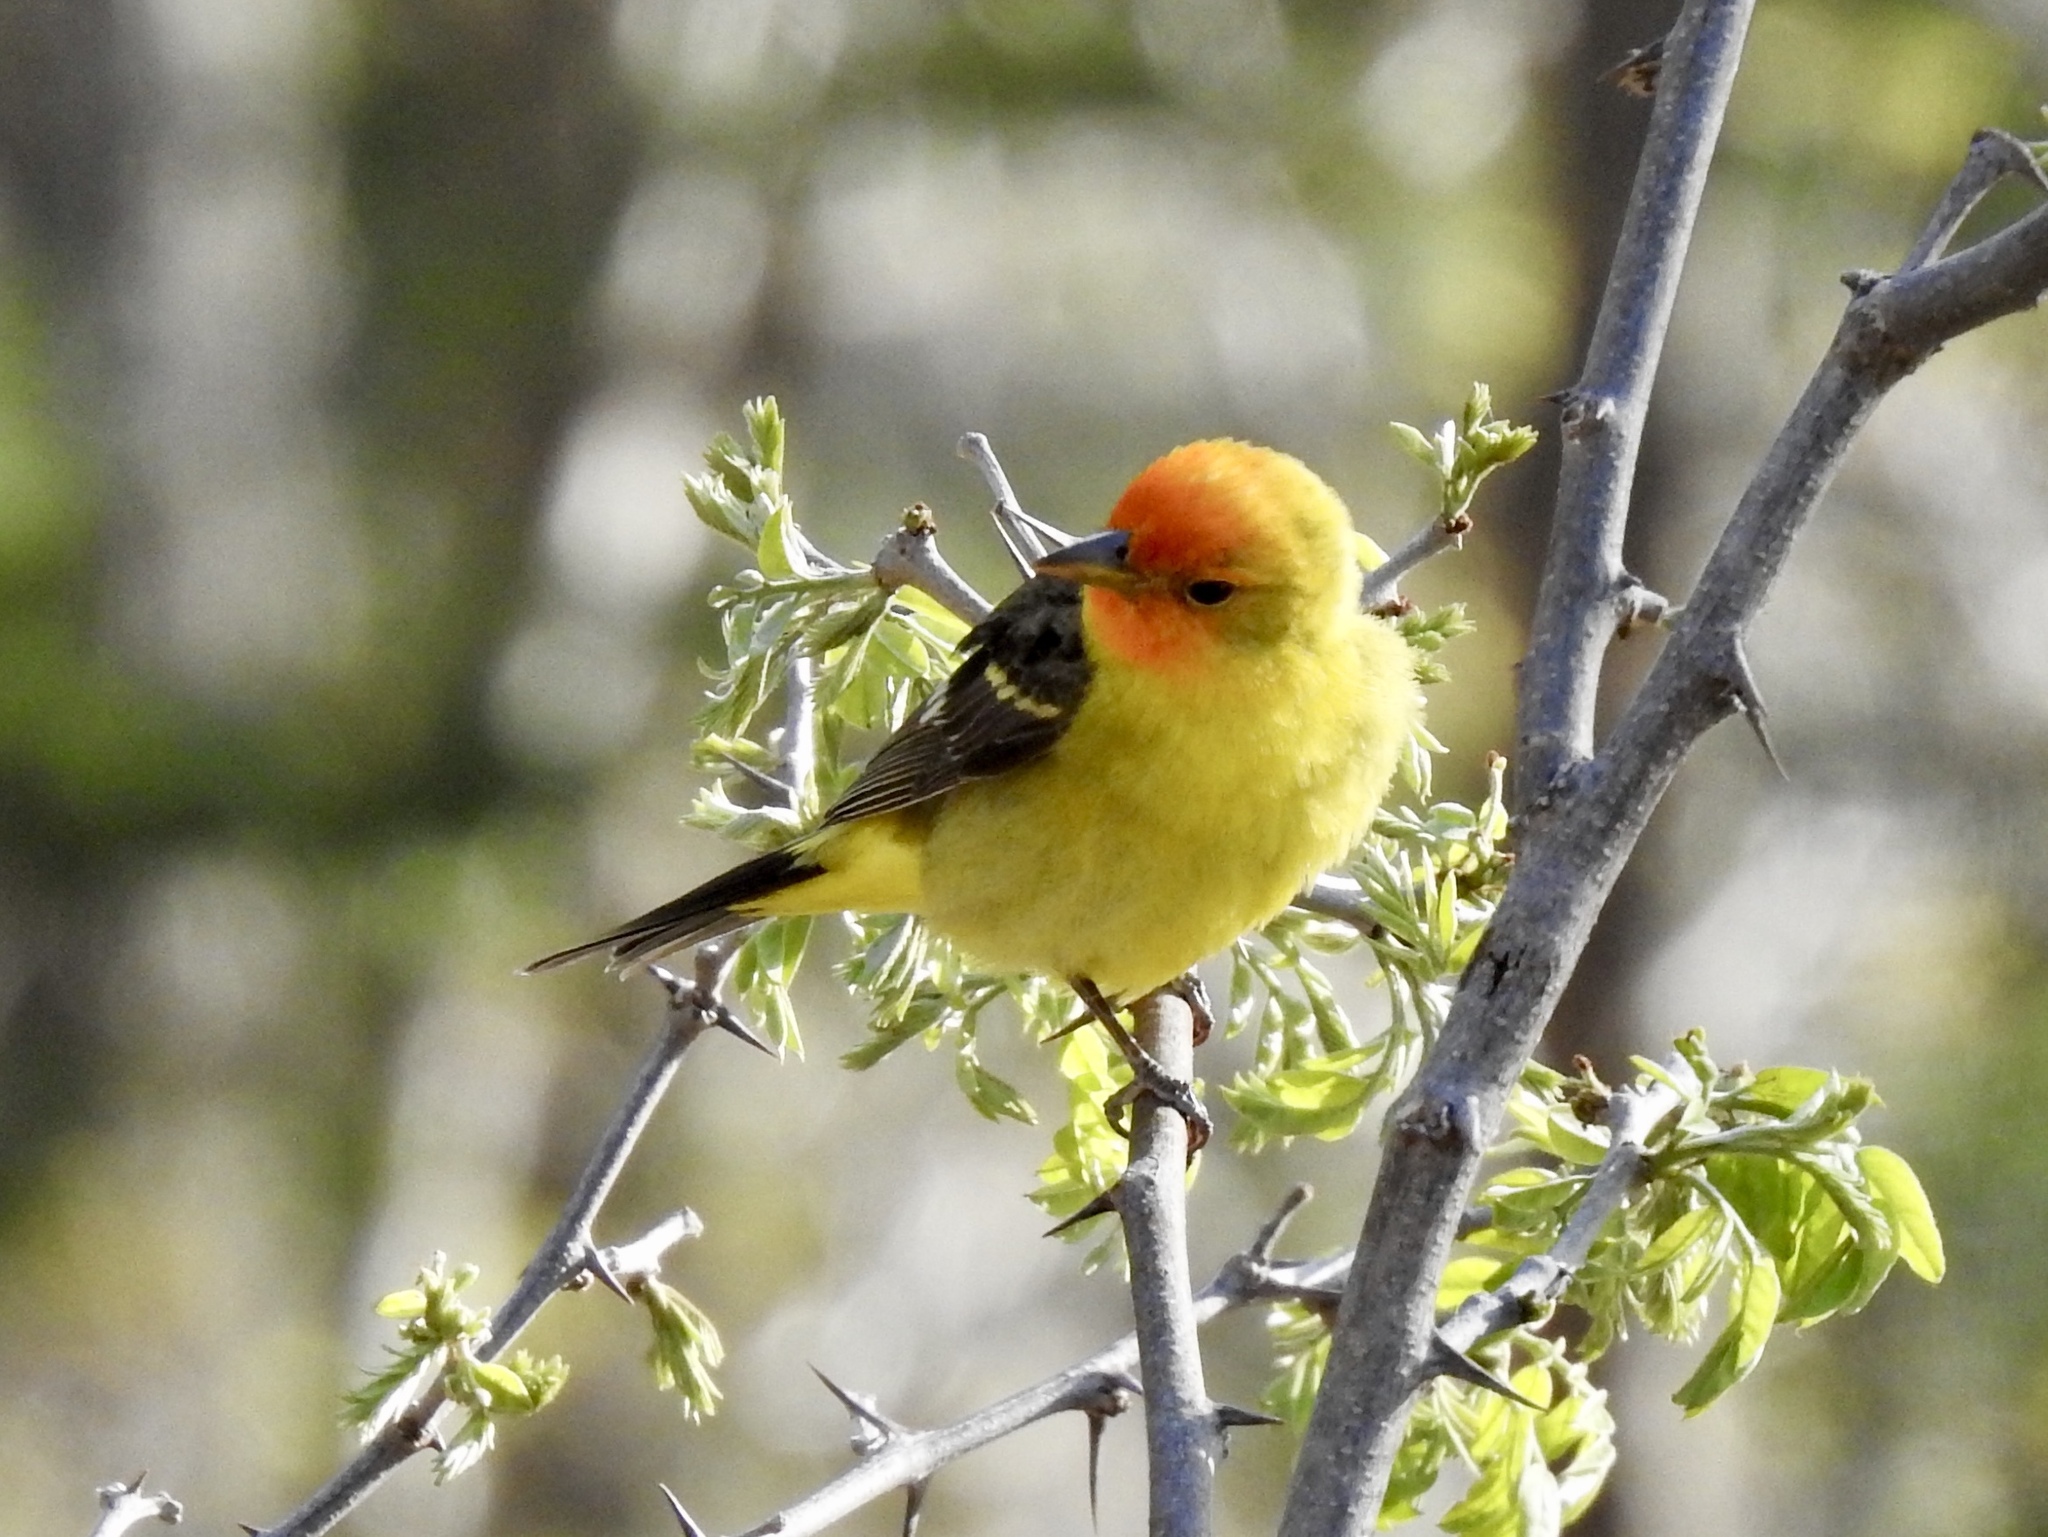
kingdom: Animalia
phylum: Chordata
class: Aves
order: Passeriformes
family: Cardinalidae
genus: Piranga
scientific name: Piranga ludoviciana
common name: Western tanager
